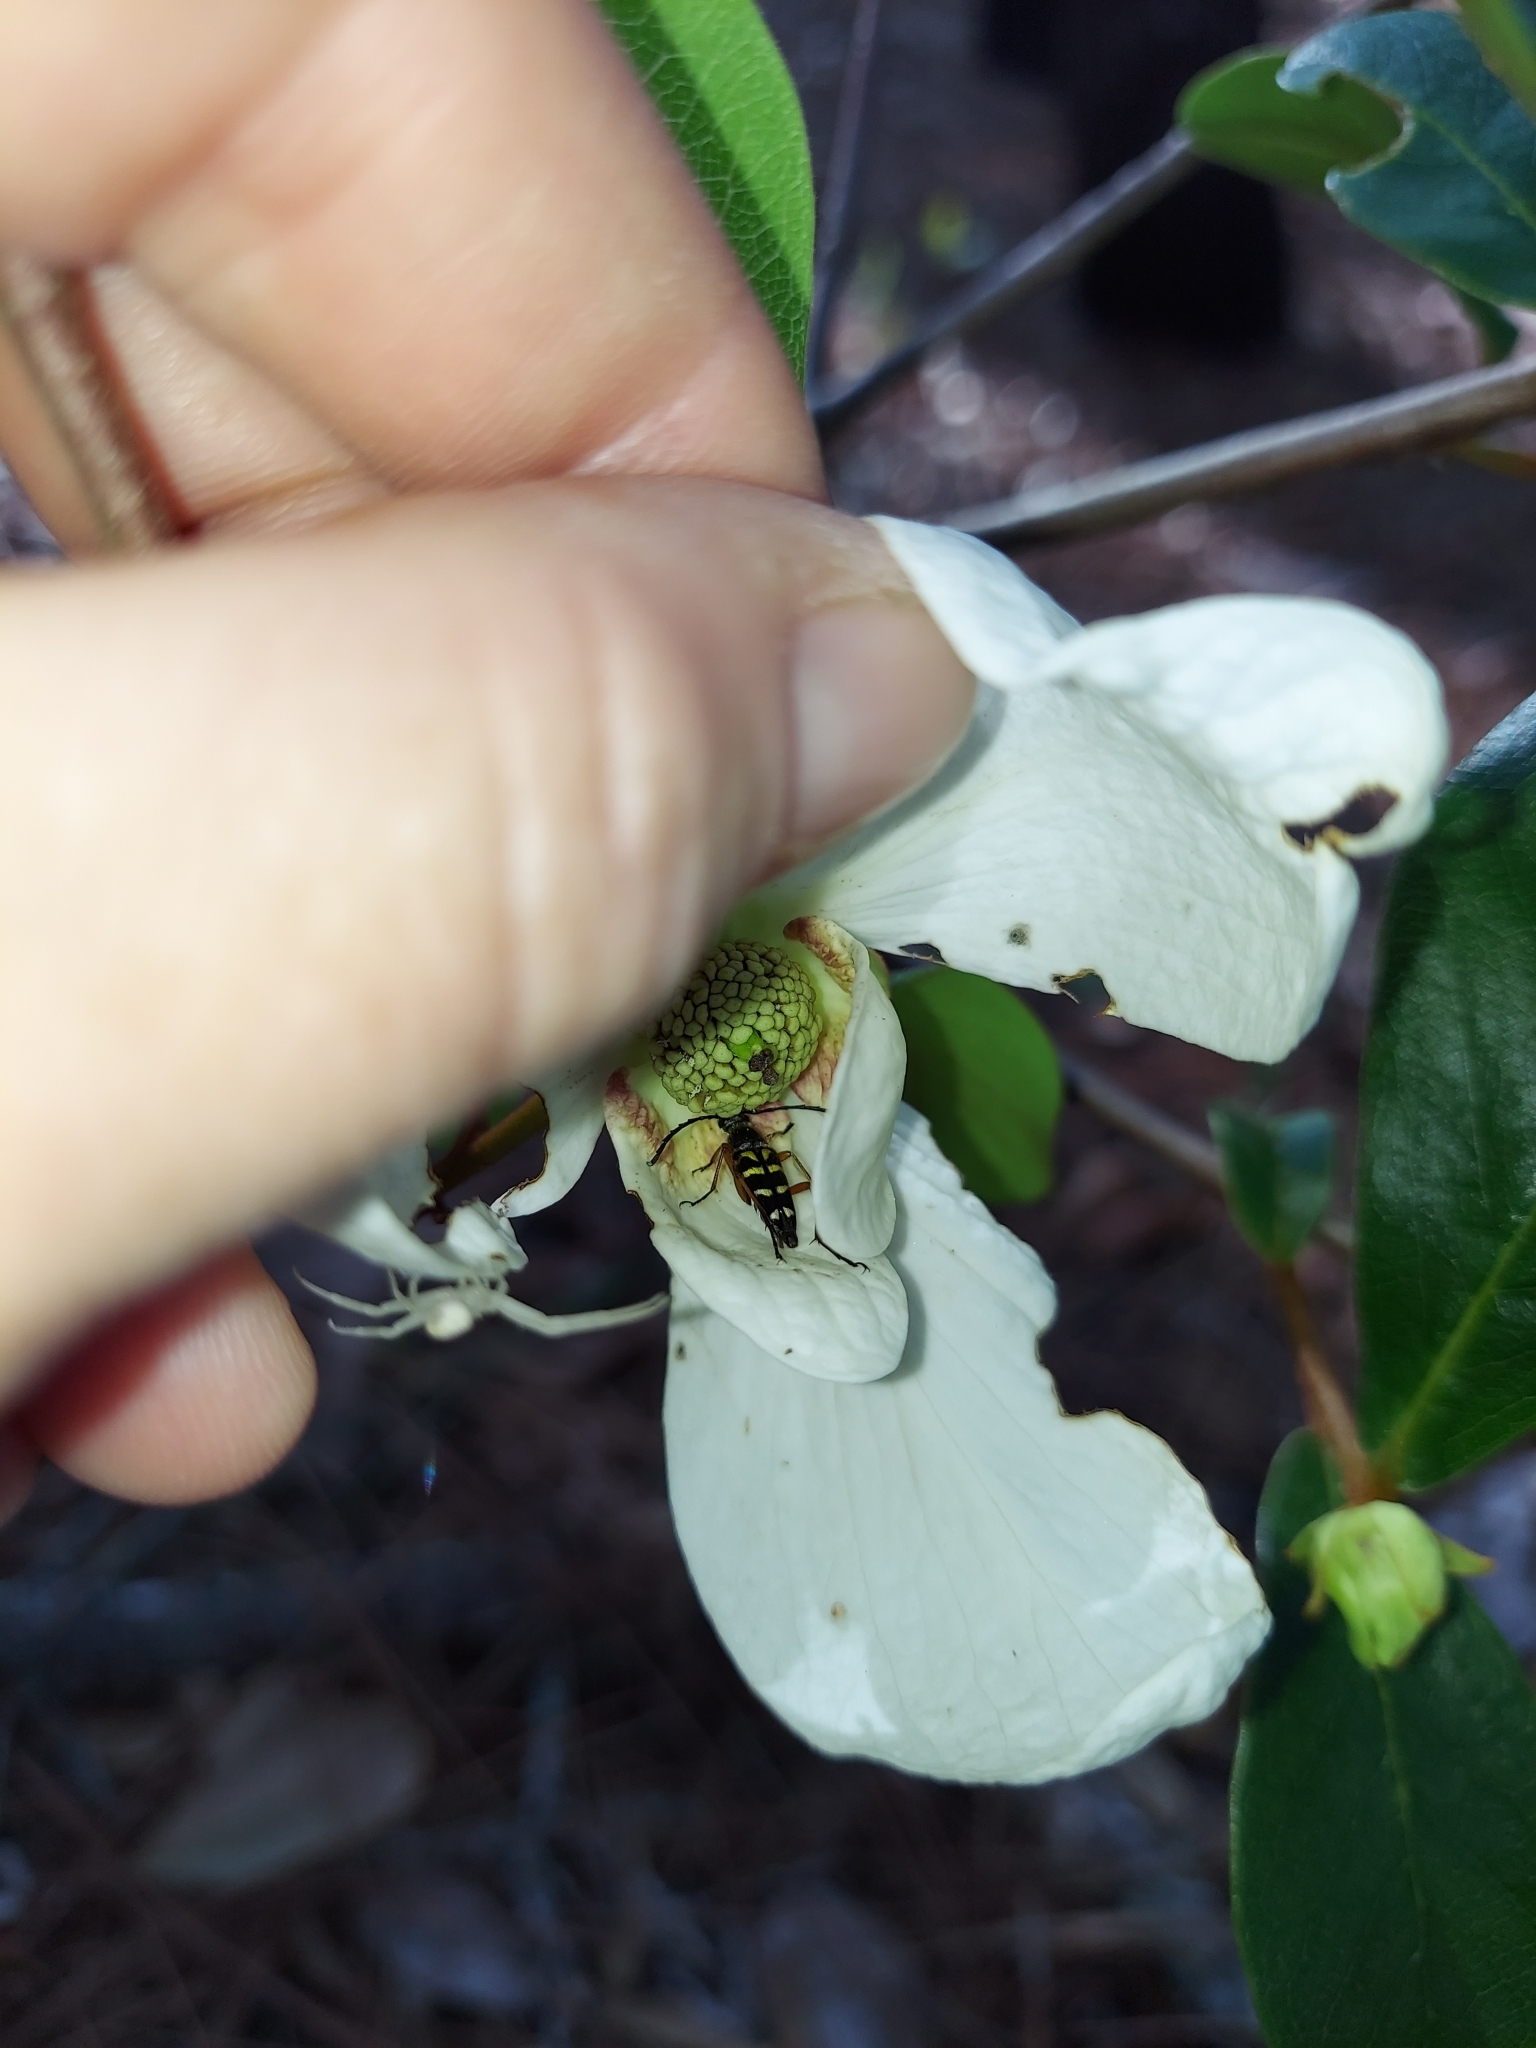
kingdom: Animalia
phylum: Arthropoda
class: Insecta
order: Coleoptera
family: Cerambycidae
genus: Typocerus
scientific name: Typocerus zebra
